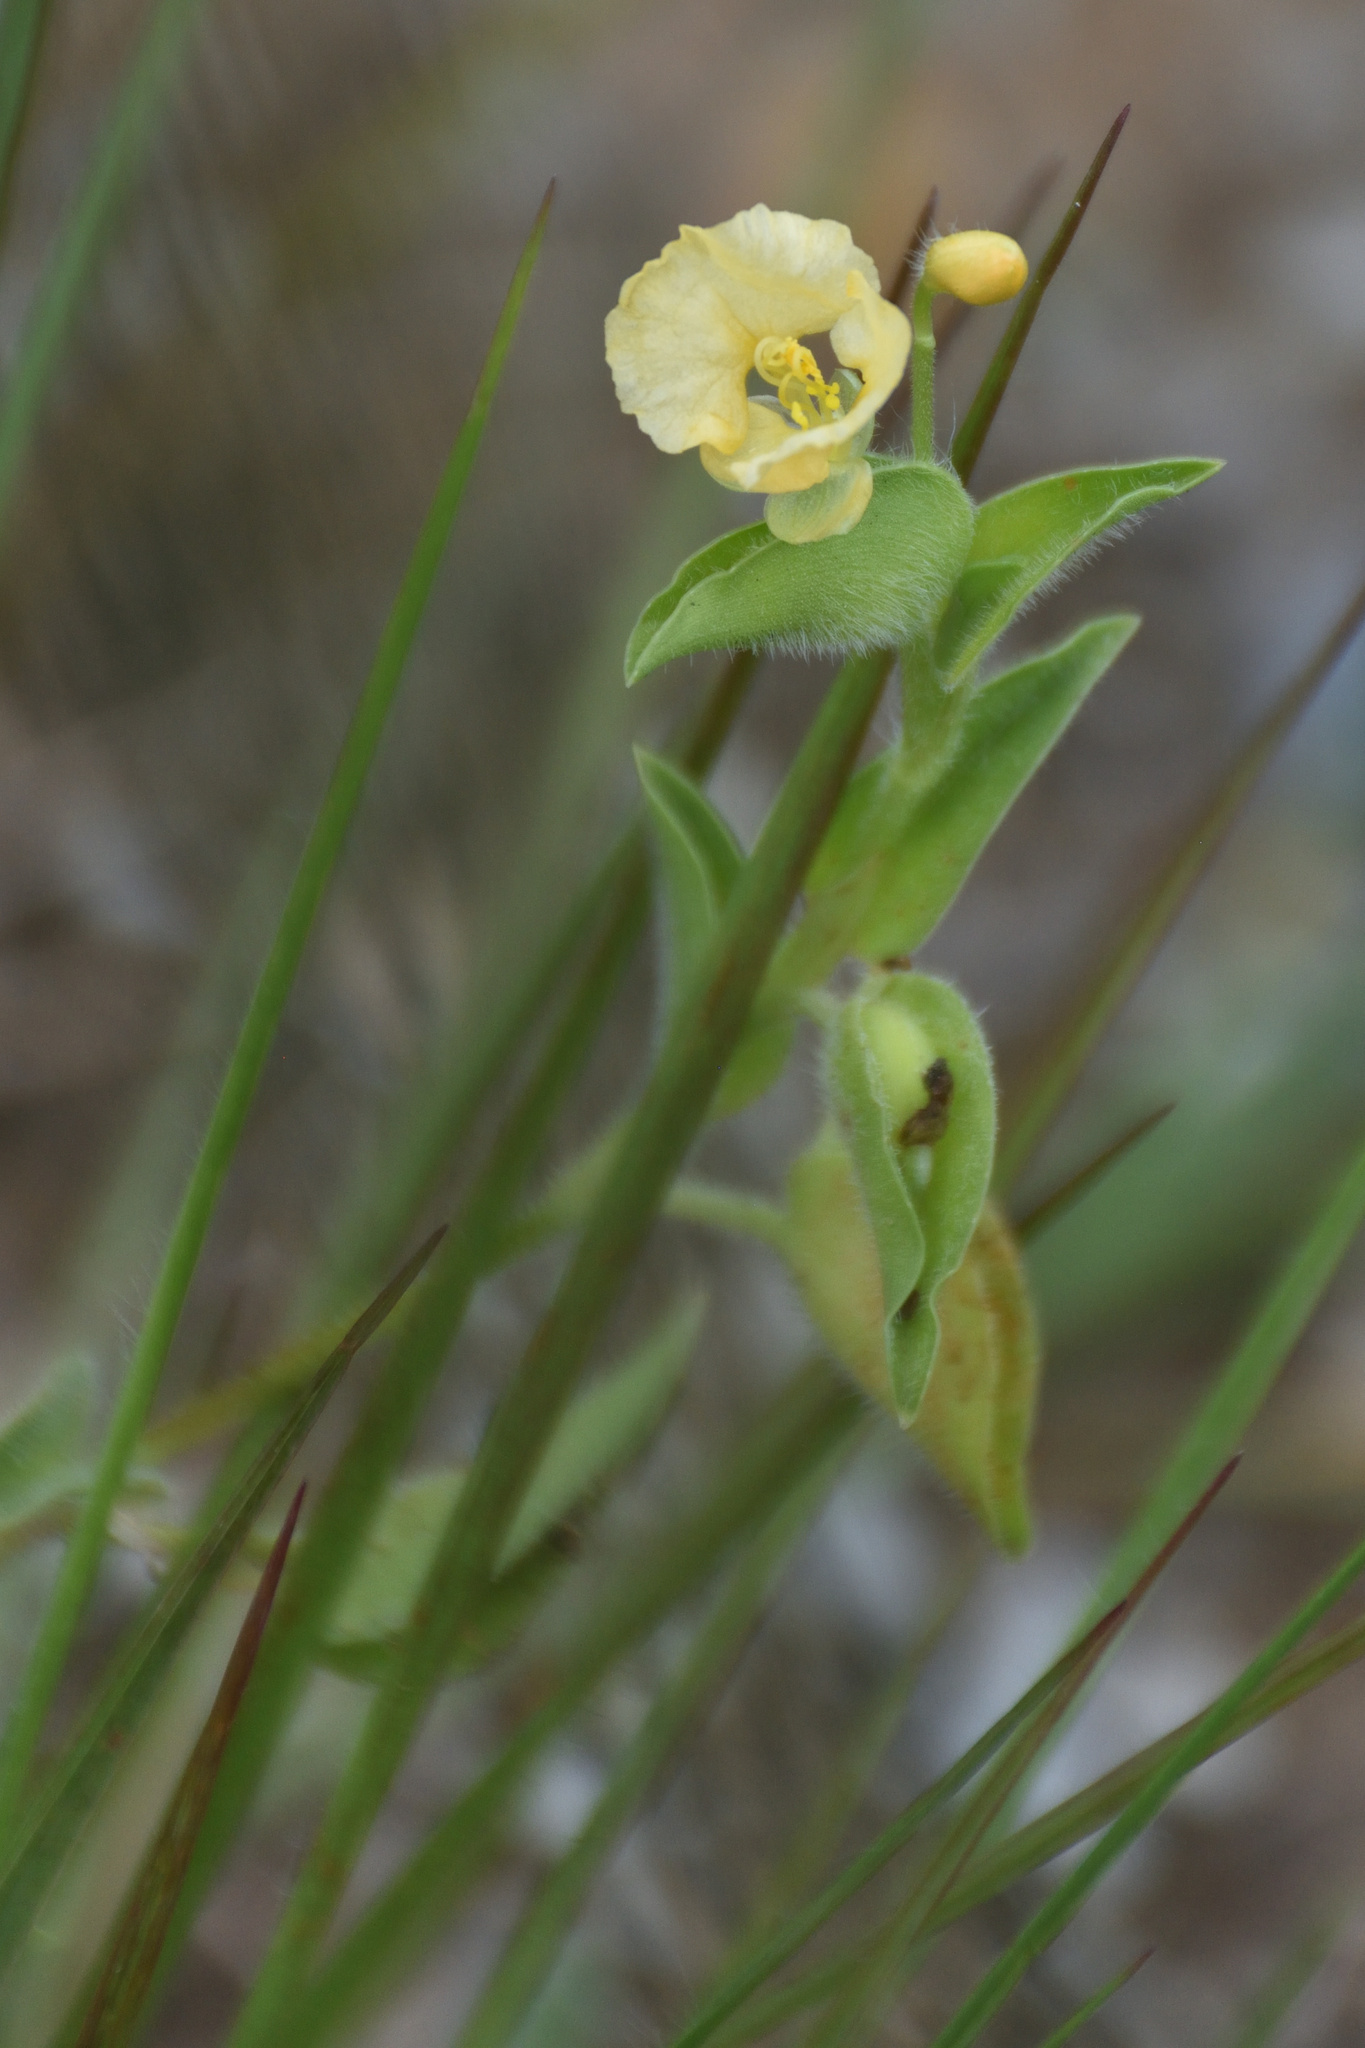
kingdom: Plantae
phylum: Tracheophyta
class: Liliopsida
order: Commelinales
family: Commelinaceae
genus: Commelina
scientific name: Commelina africana
